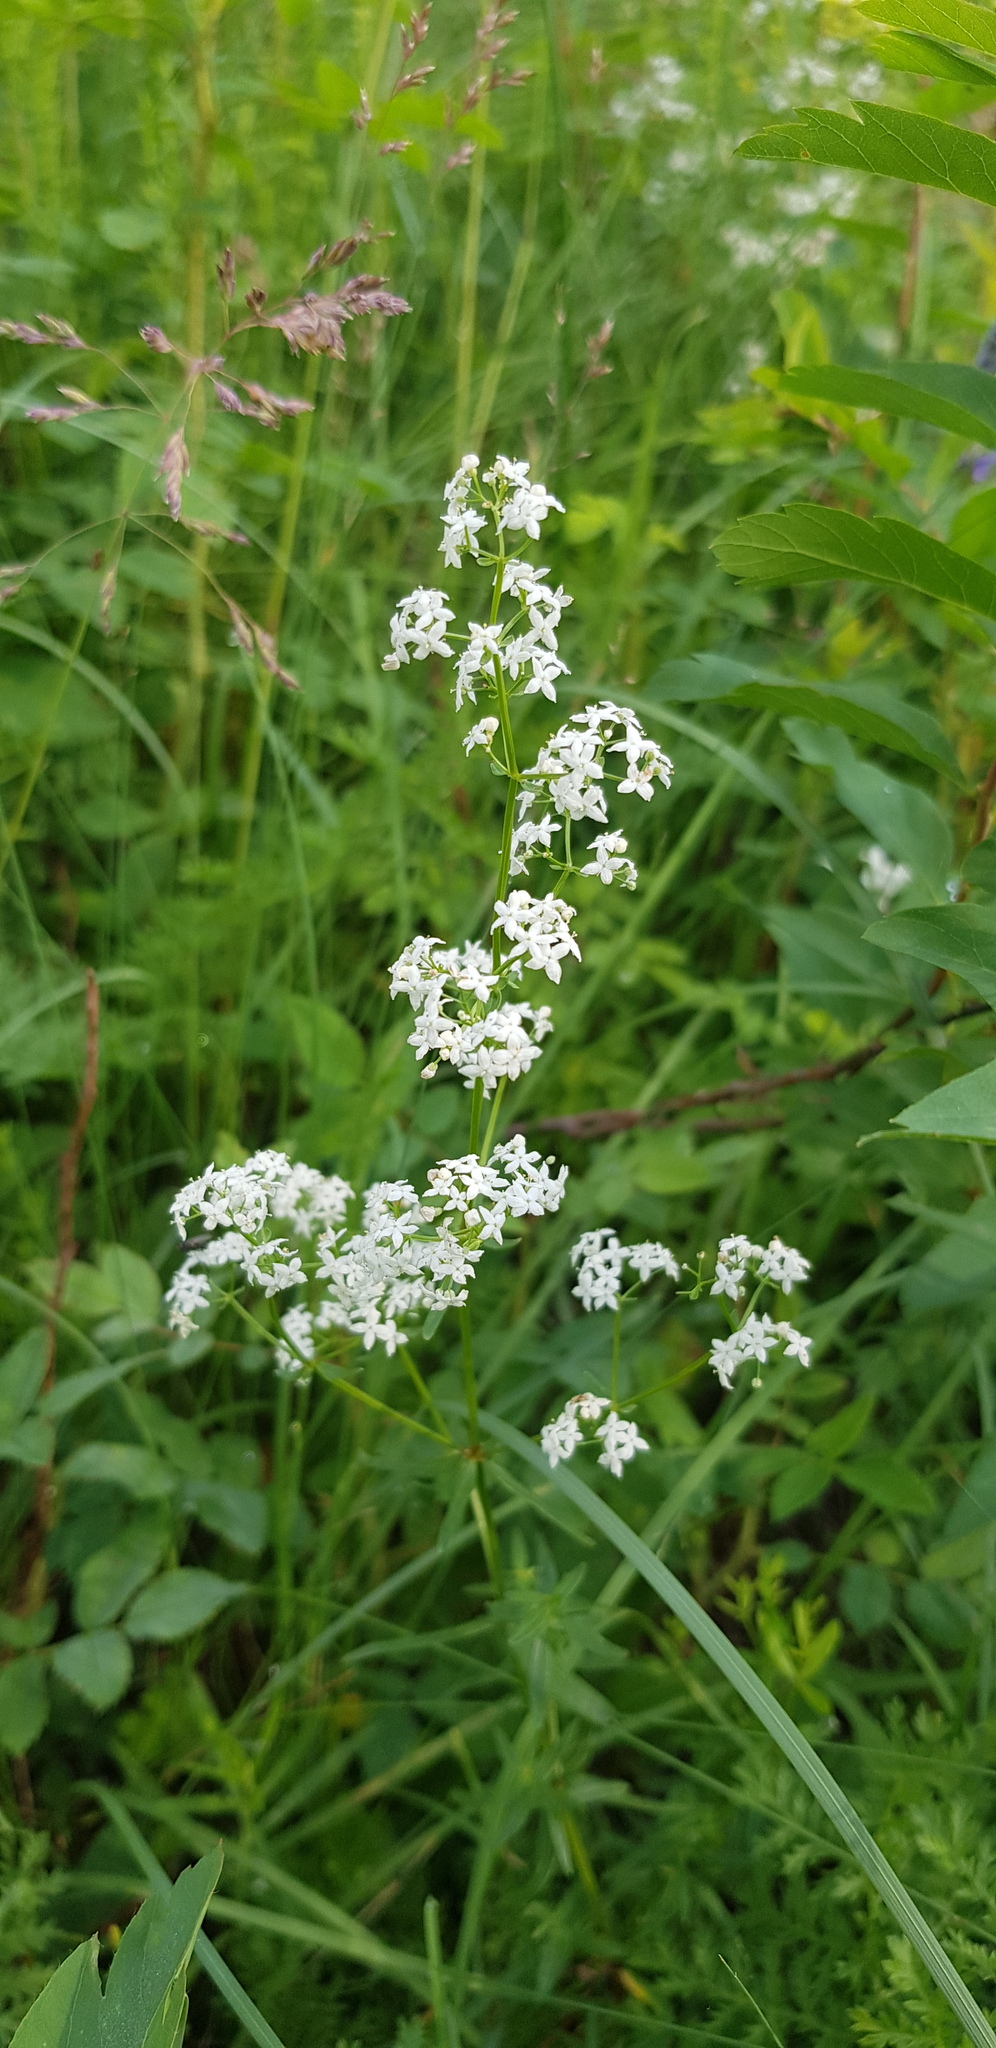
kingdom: Plantae
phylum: Tracheophyta
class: Magnoliopsida
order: Gentianales
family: Rubiaceae
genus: Galium
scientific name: Galium boreale
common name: Northern bedstraw
